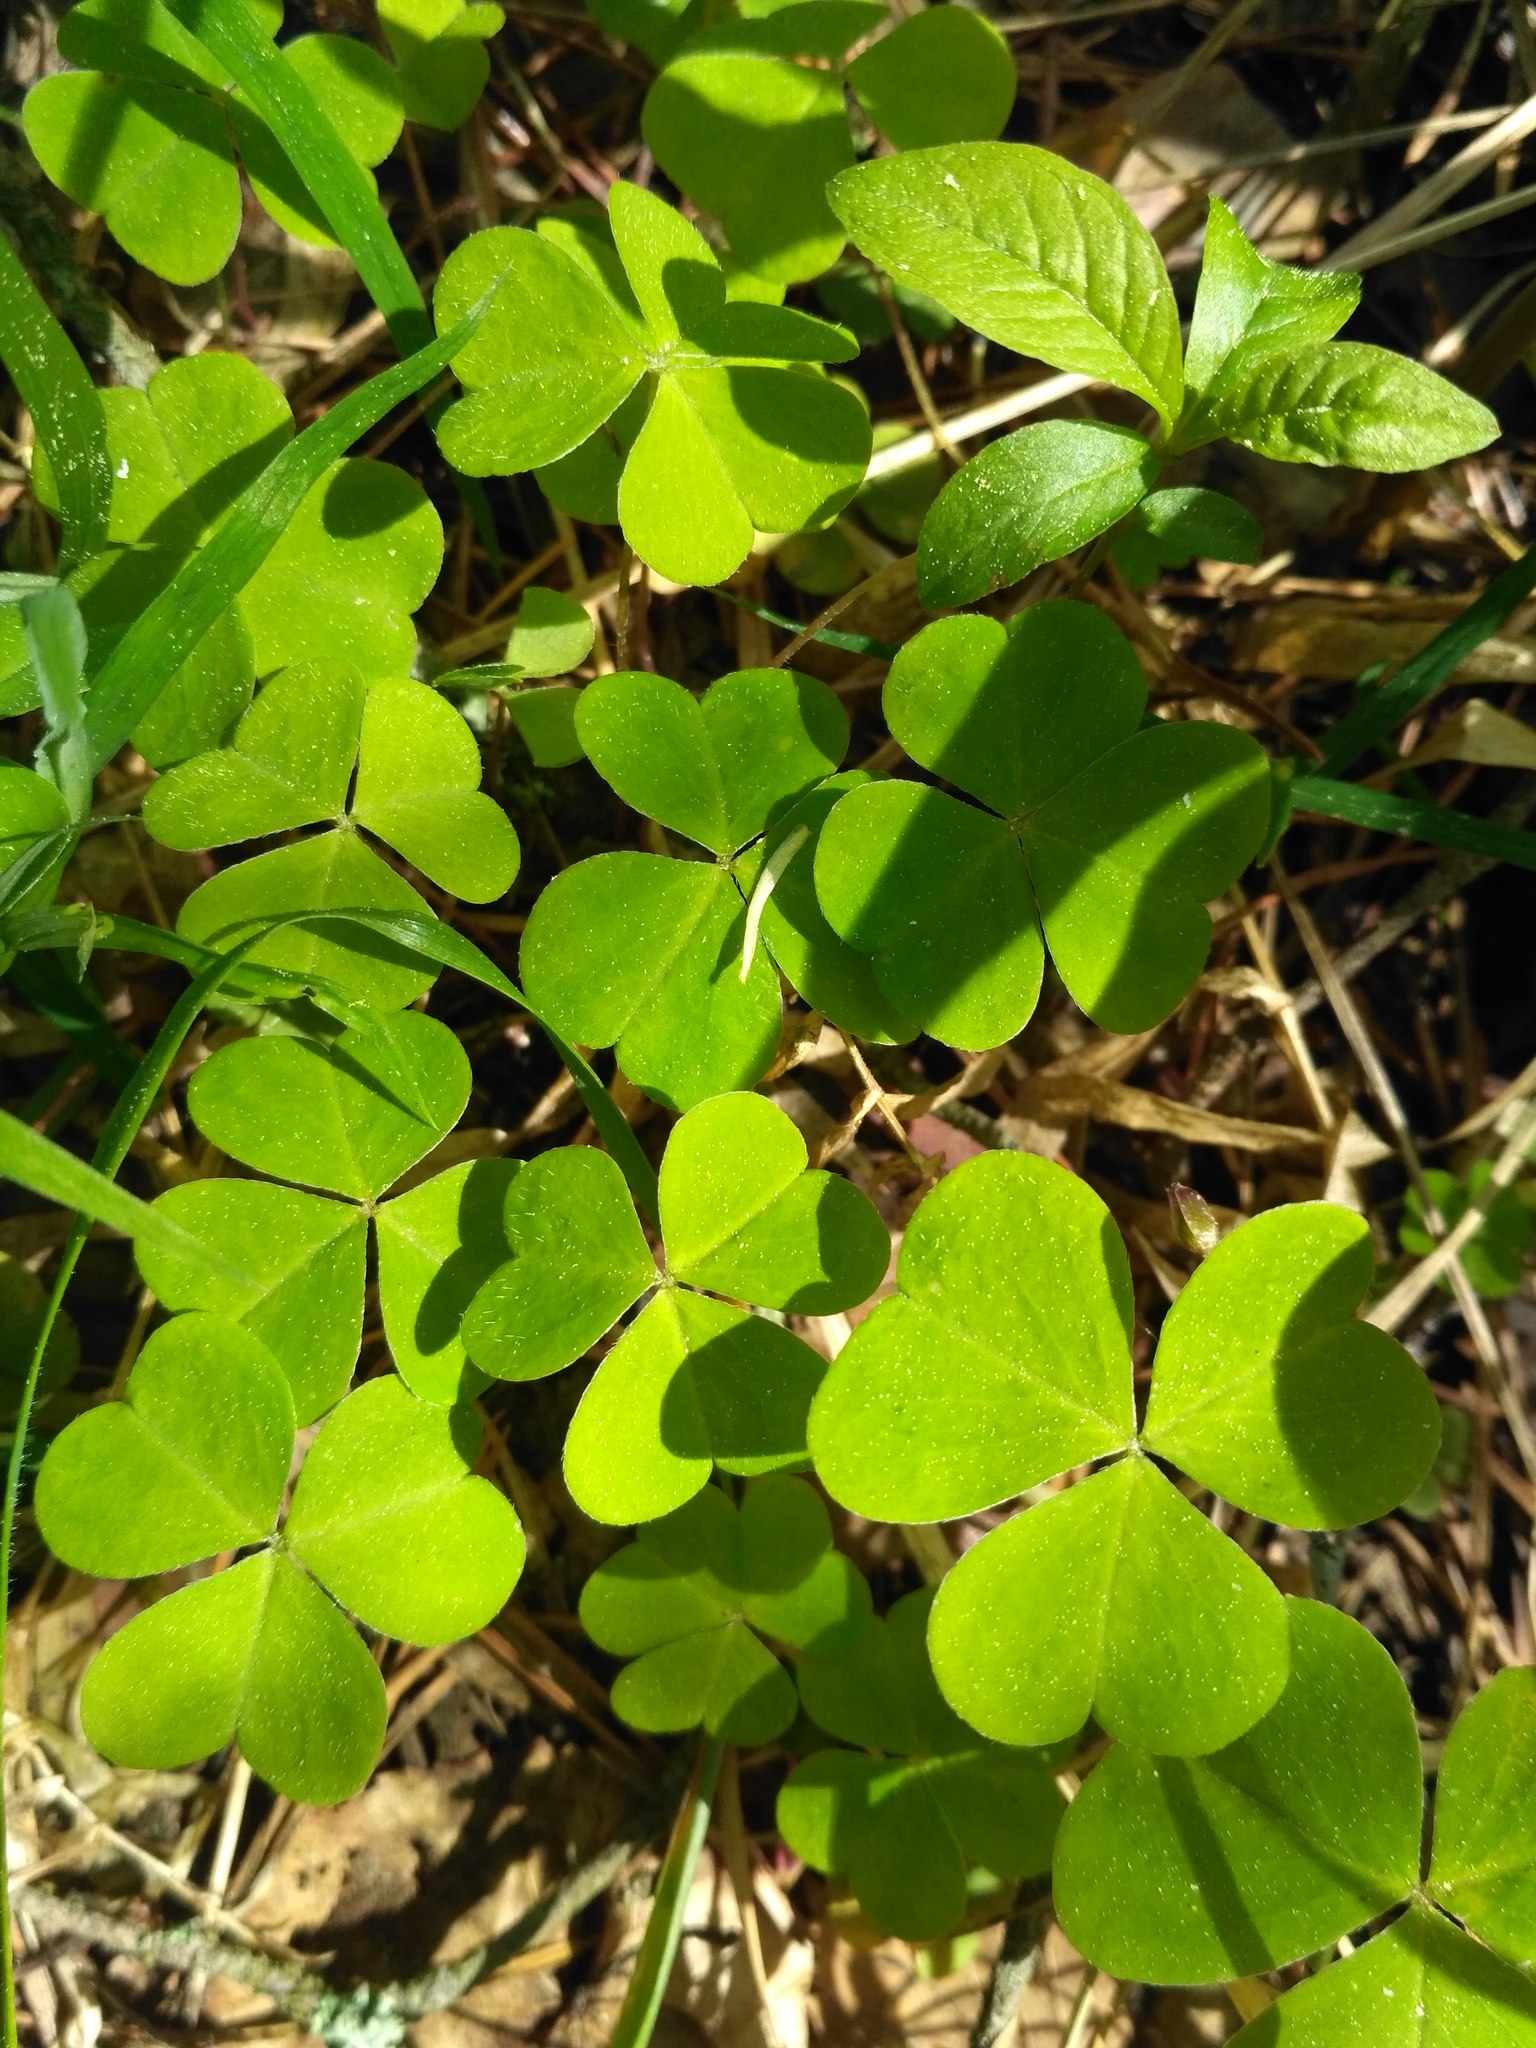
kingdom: Plantae
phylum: Tracheophyta
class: Magnoliopsida
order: Oxalidales
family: Oxalidaceae
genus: Oxalis
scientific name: Oxalis acetosella
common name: Wood-sorrel
